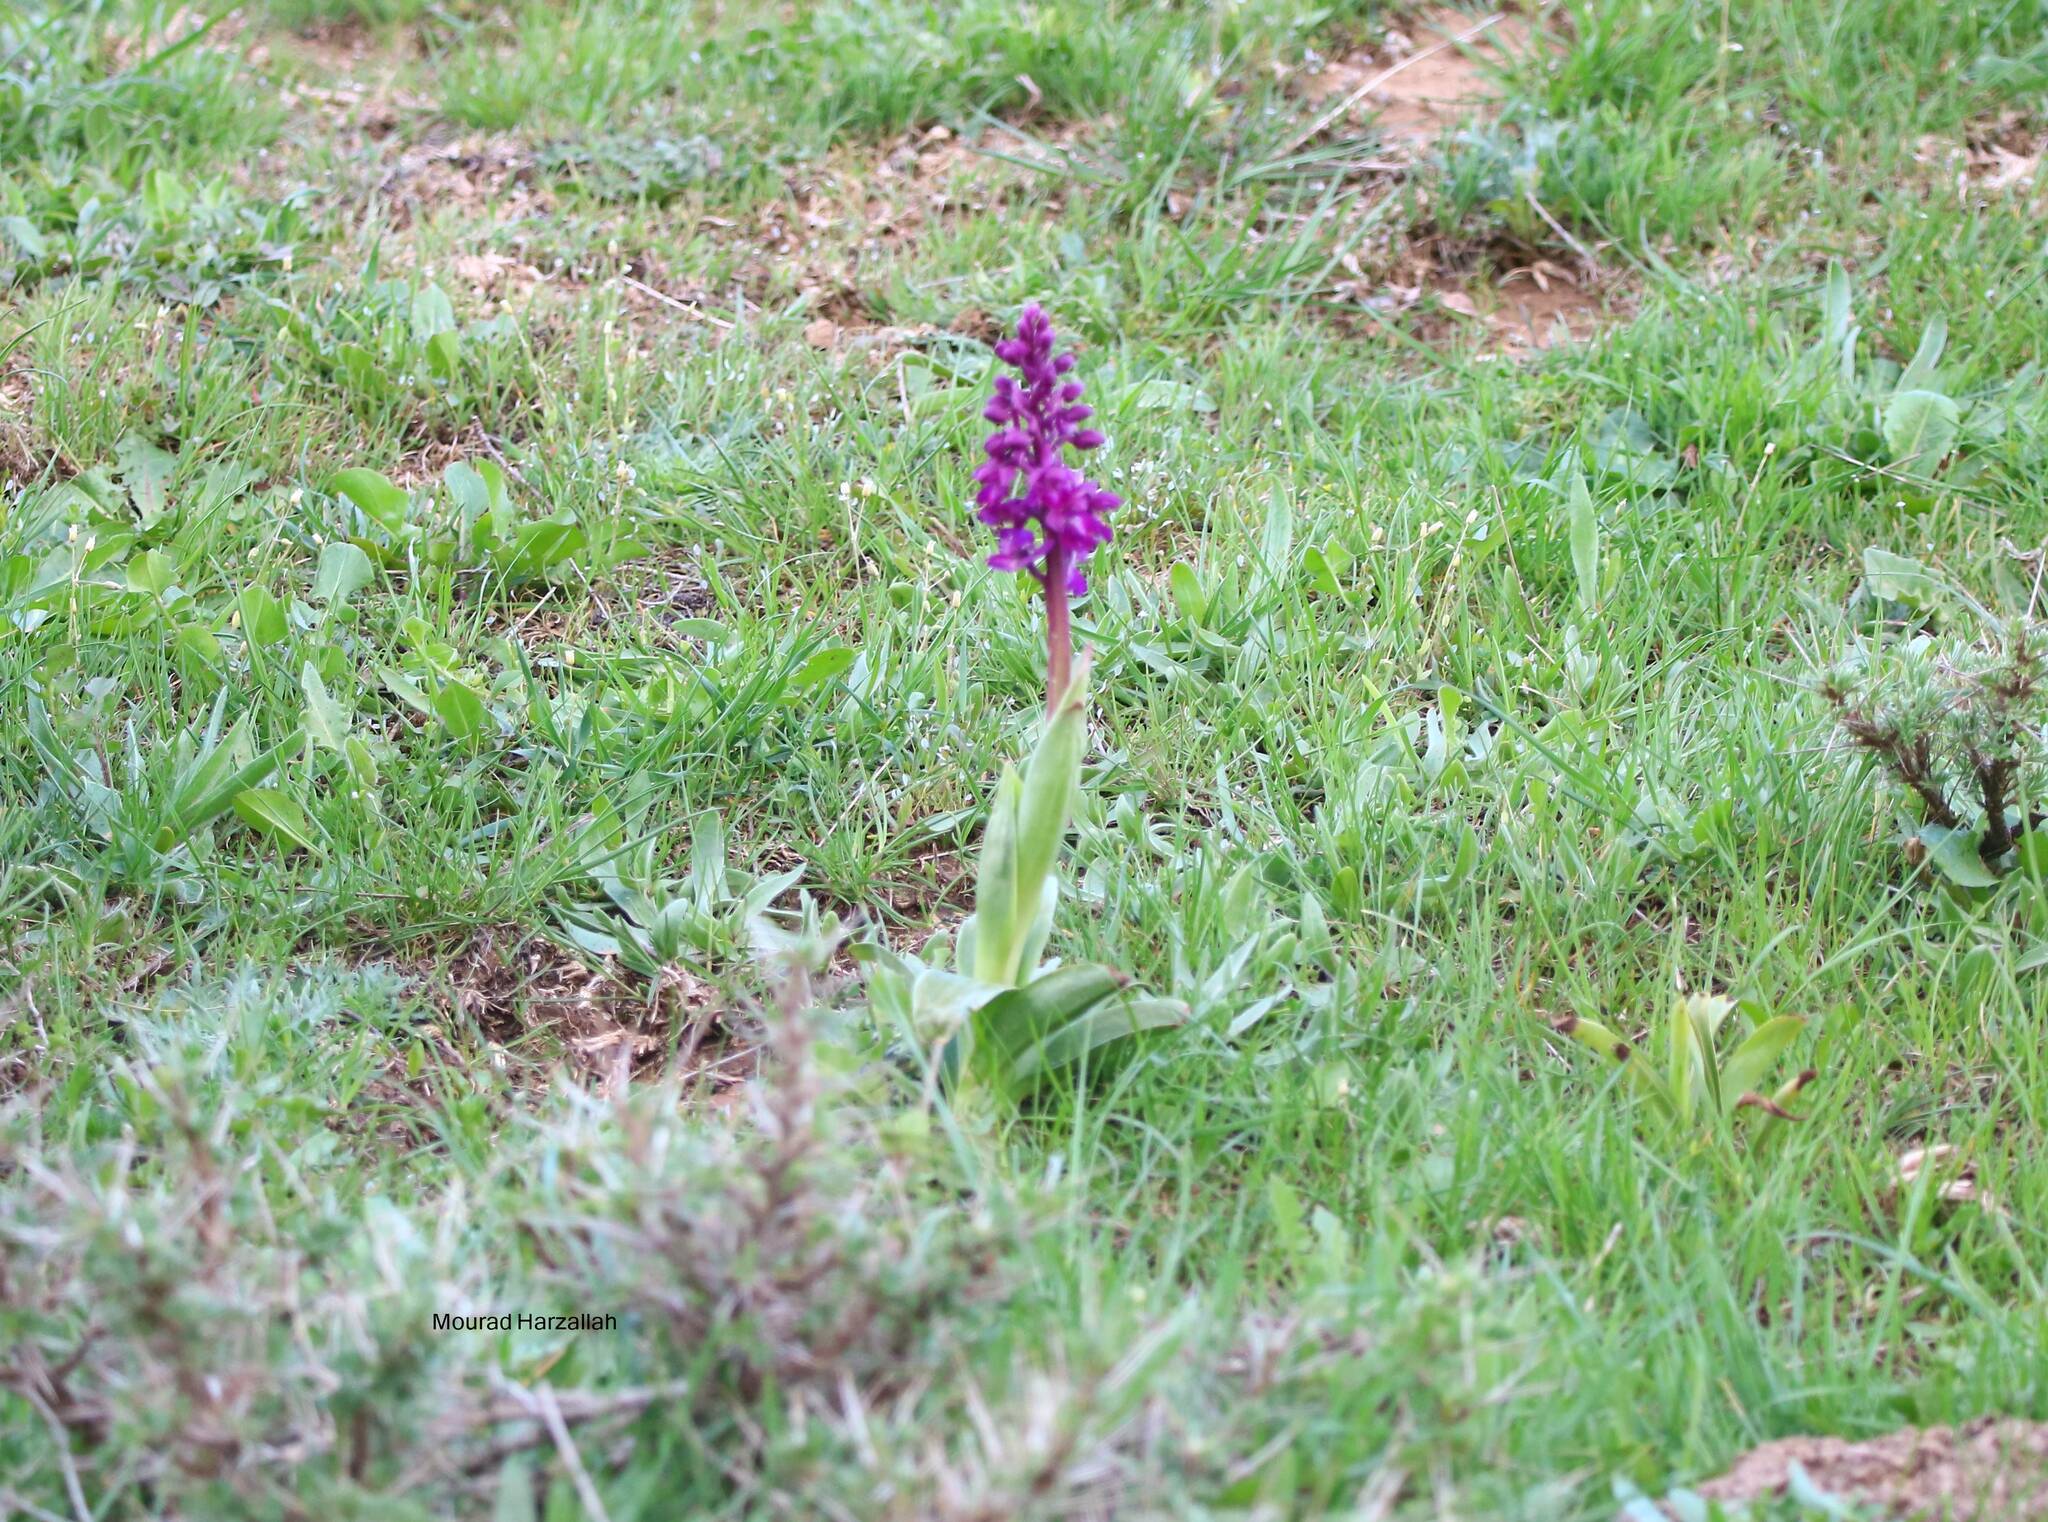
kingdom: Plantae
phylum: Tracheophyta
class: Liliopsida
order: Asparagales
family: Orchidaceae
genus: Orchis
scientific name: Orchis mascula
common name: Early-purple orchid
